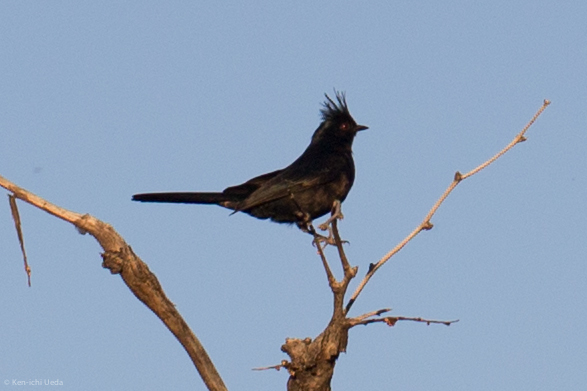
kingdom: Animalia
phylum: Chordata
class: Aves
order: Passeriformes
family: Ptilogonatidae
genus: Phainopepla
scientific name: Phainopepla nitens
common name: Phainopepla
